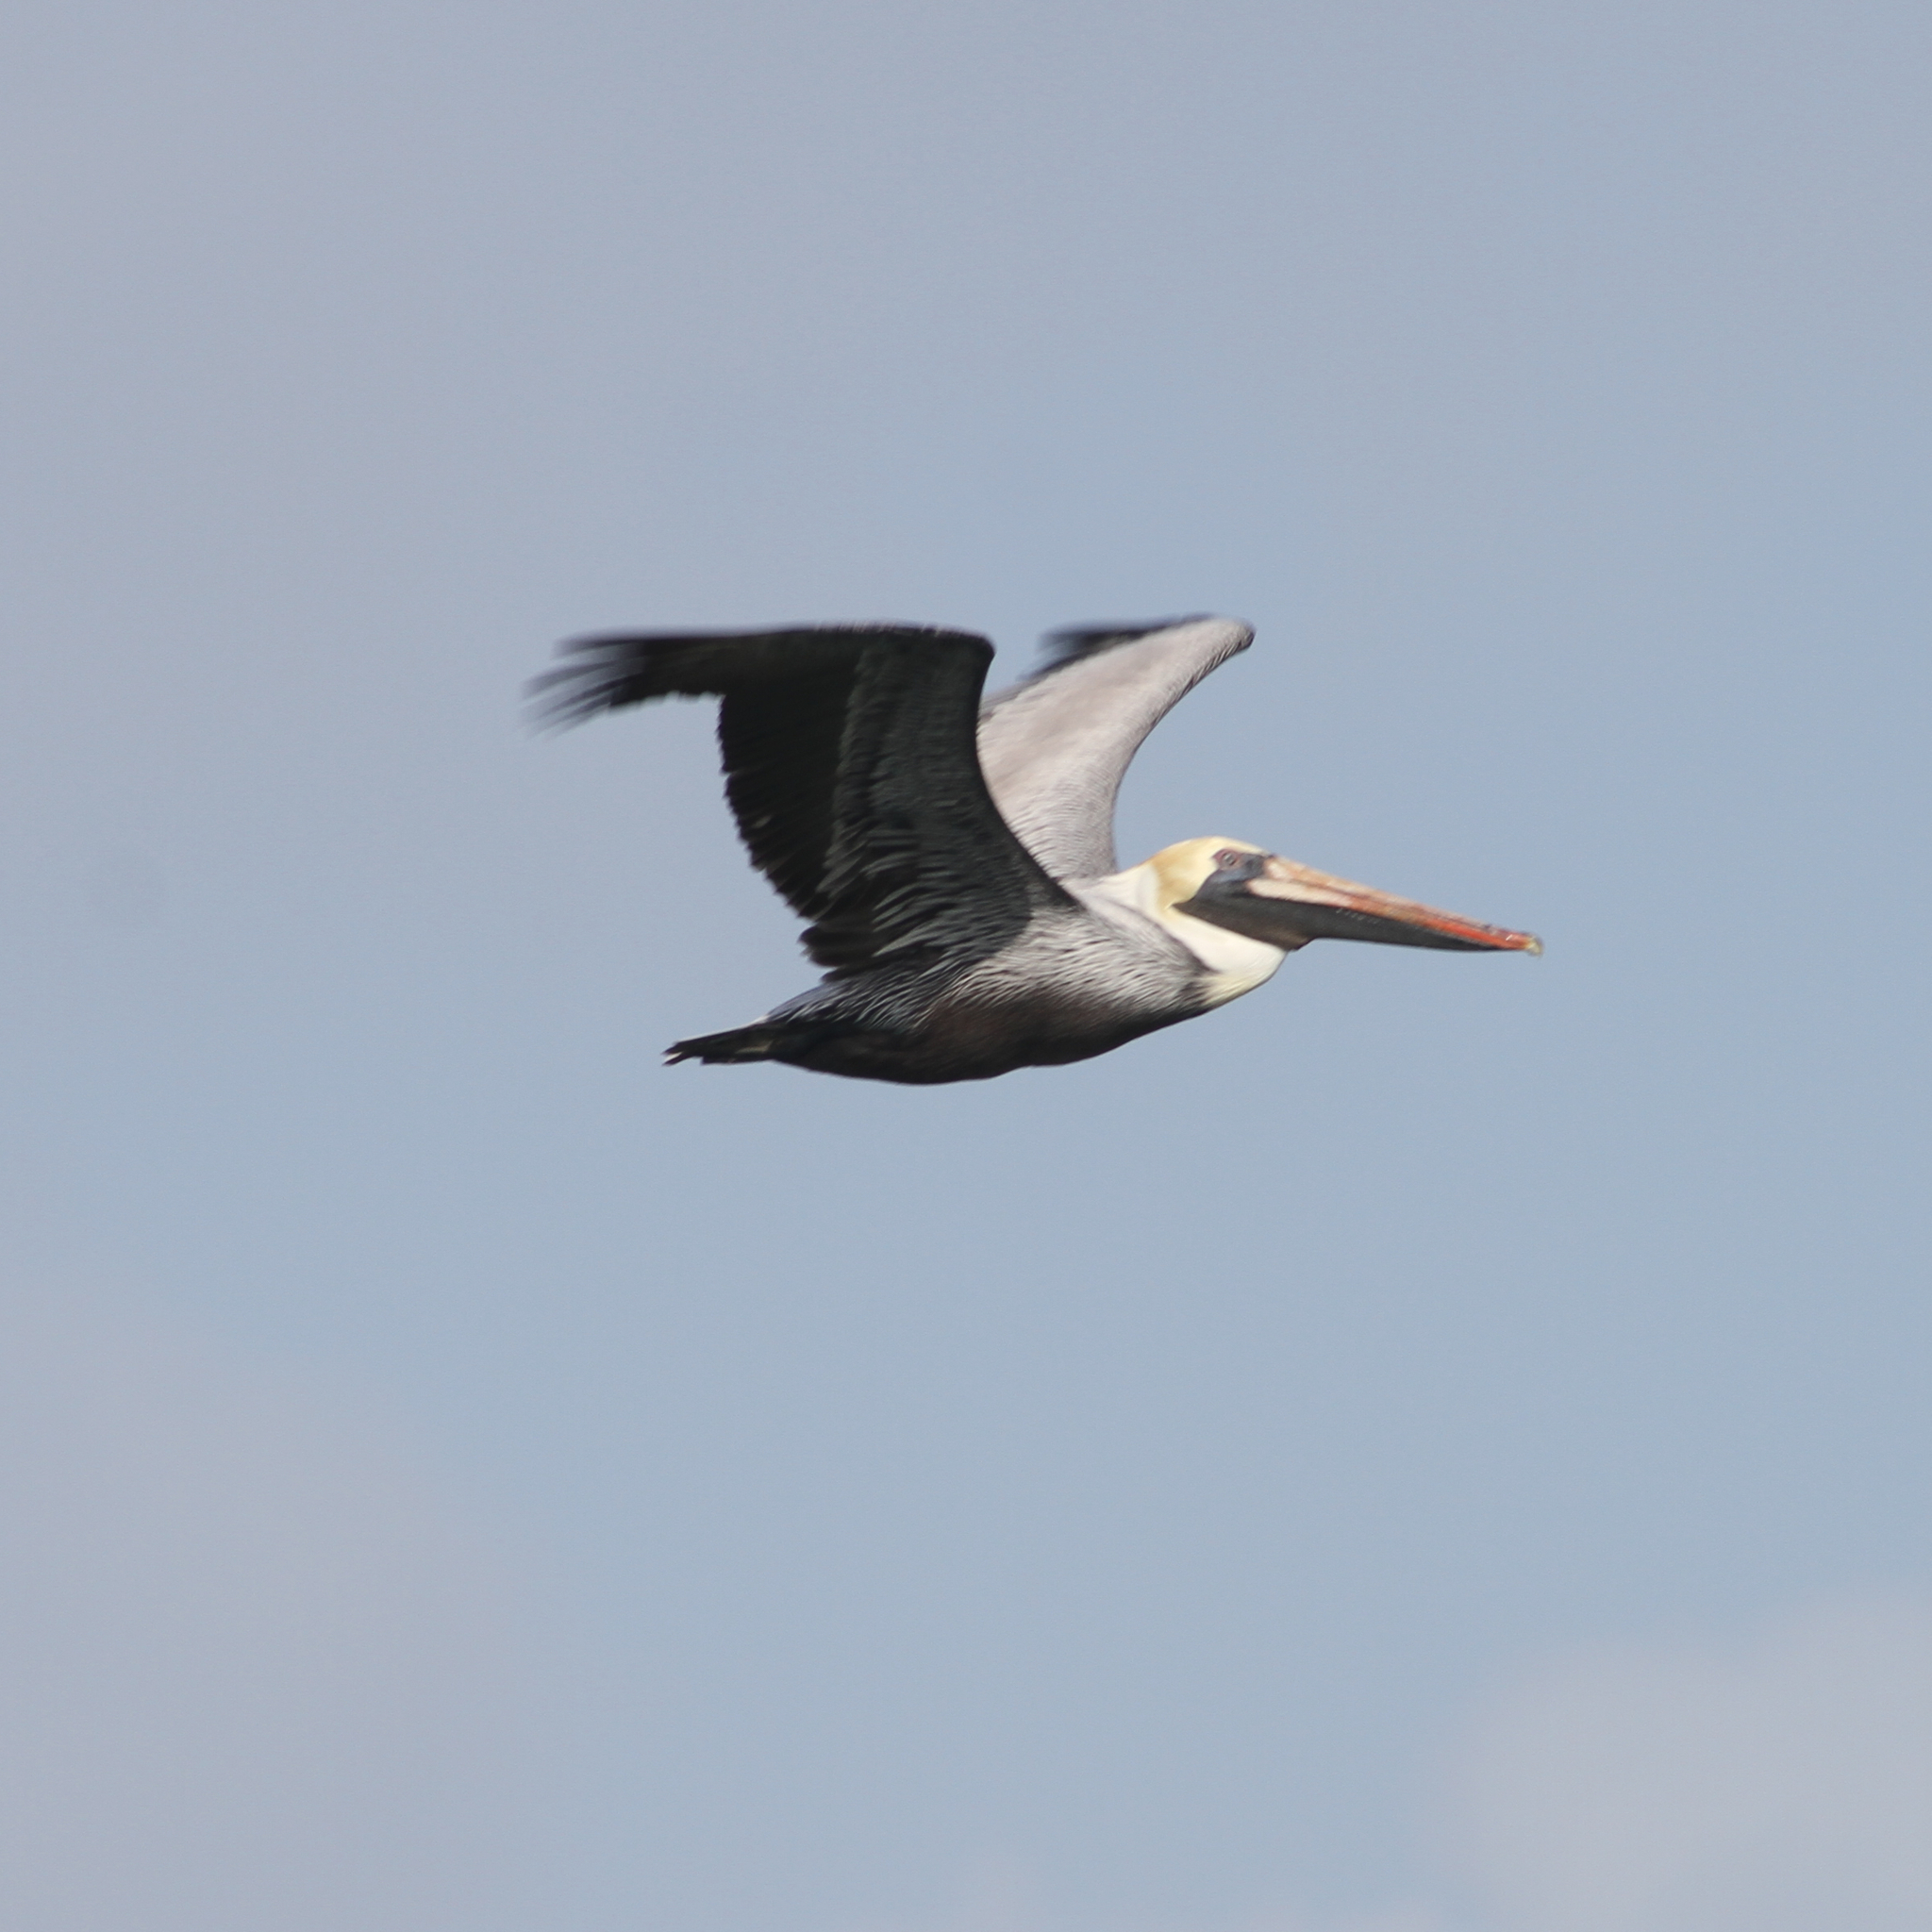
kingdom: Animalia
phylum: Chordata
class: Aves
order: Pelecaniformes
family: Pelecanidae
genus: Pelecanus
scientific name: Pelecanus occidentalis
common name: Brown pelican
